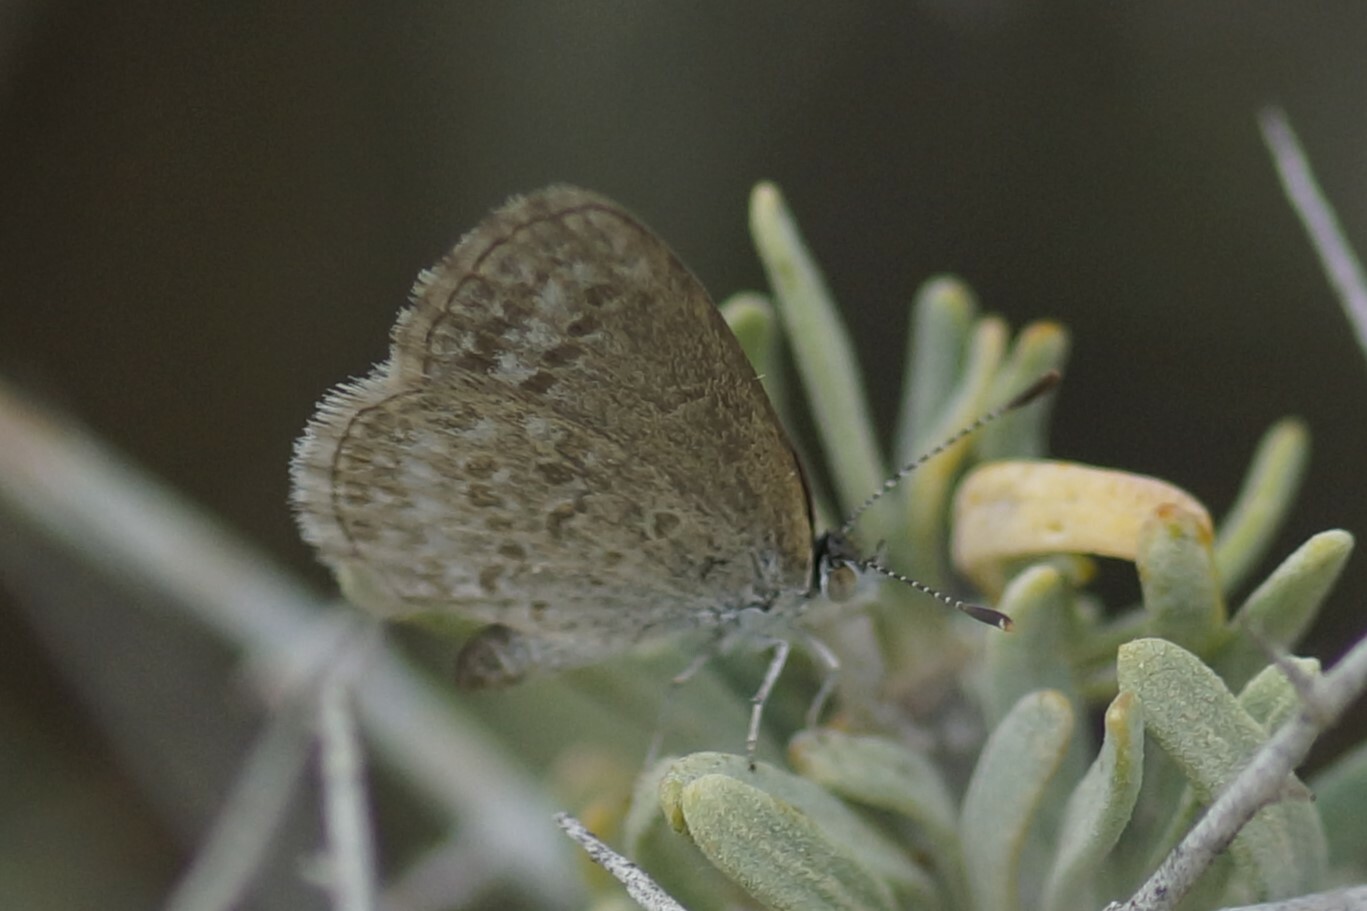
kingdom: Animalia
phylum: Arthropoda
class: Insecta
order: Lepidoptera
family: Lycaenidae
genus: Zizina
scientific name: Zizina otis
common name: Lesser grass blue
